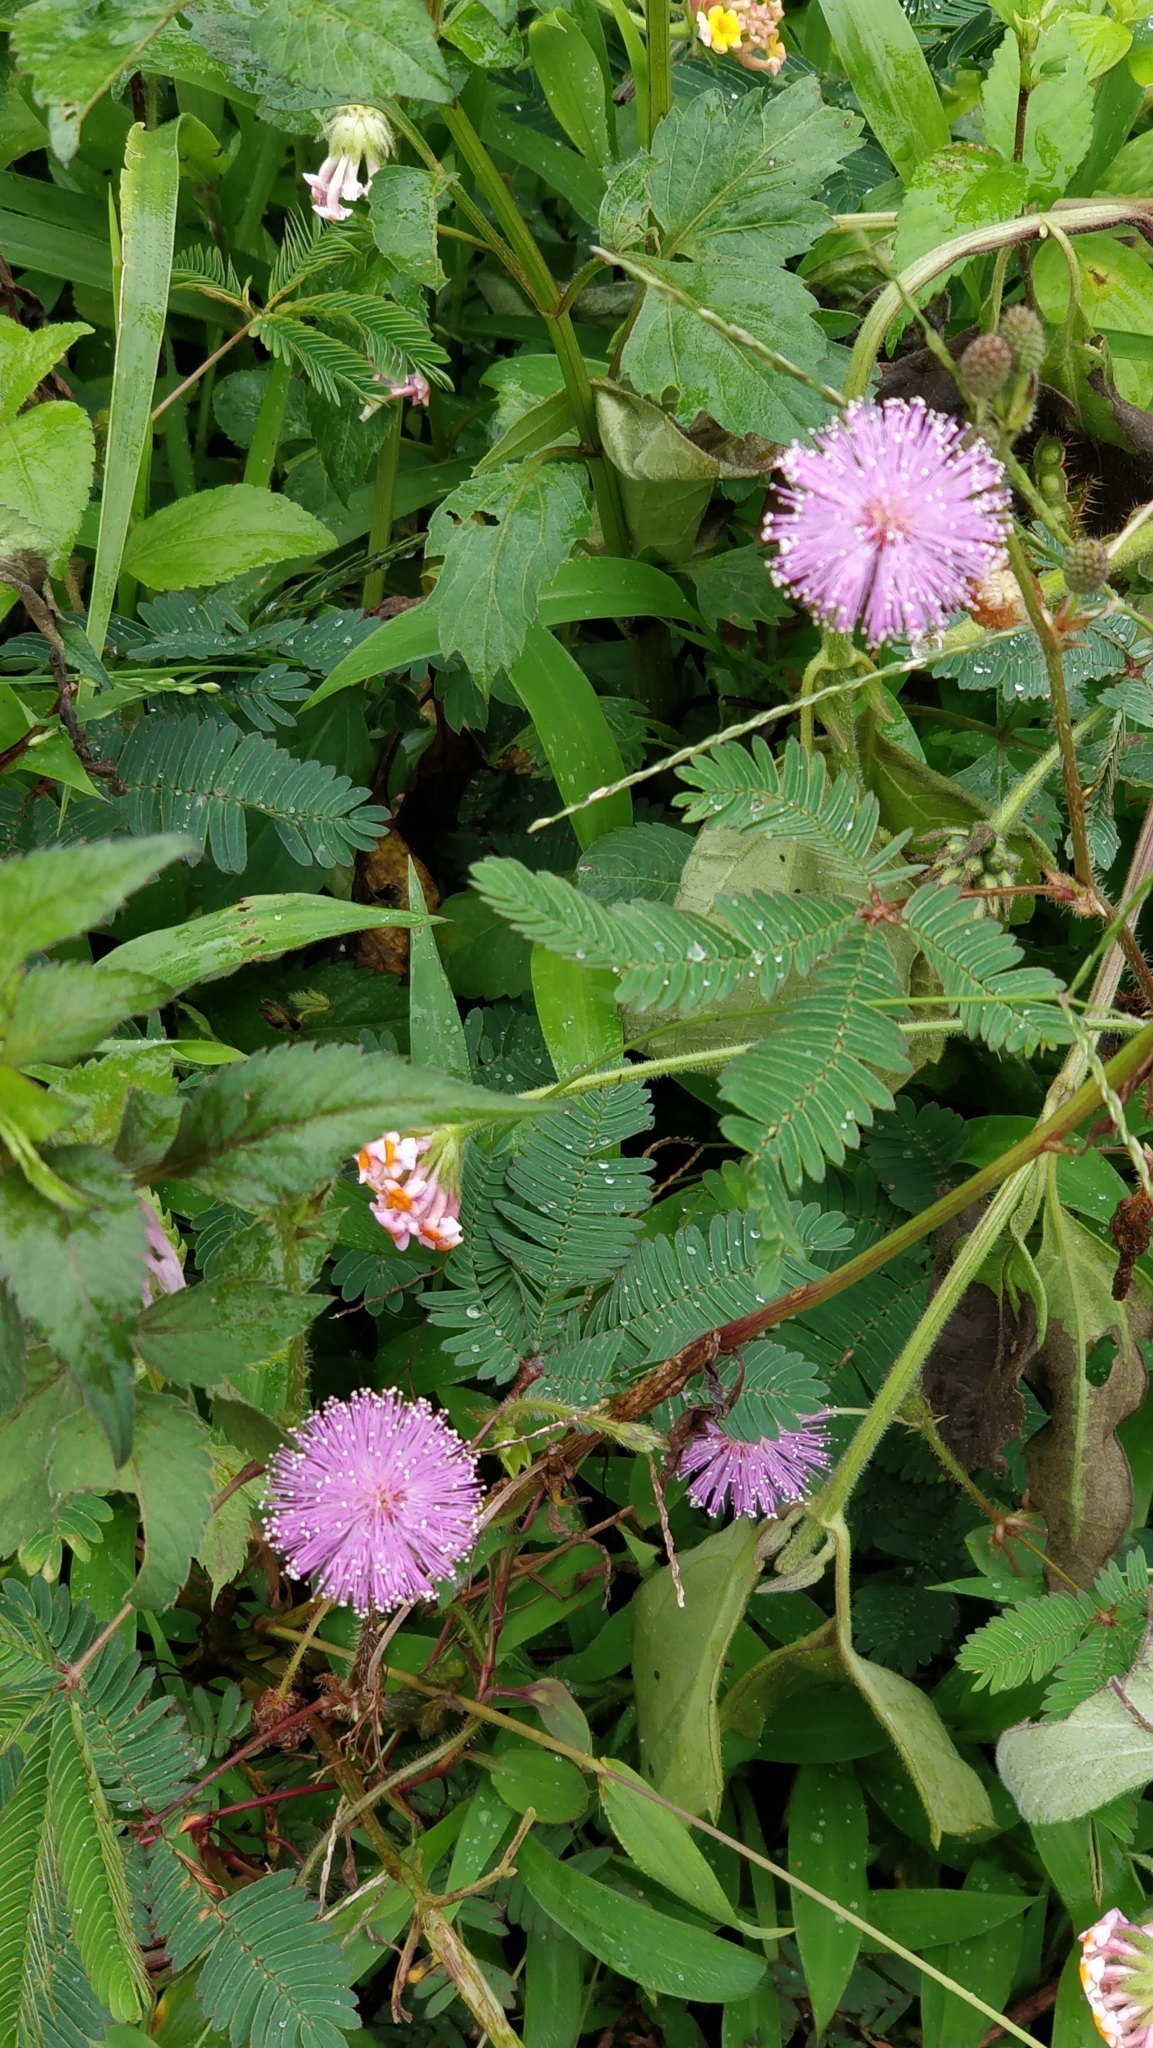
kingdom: Plantae
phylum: Tracheophyta
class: Magnoliopsida
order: Fabales
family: Fabaceae
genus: Mimosa
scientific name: Mimosa pudica
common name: Sensitive plant
